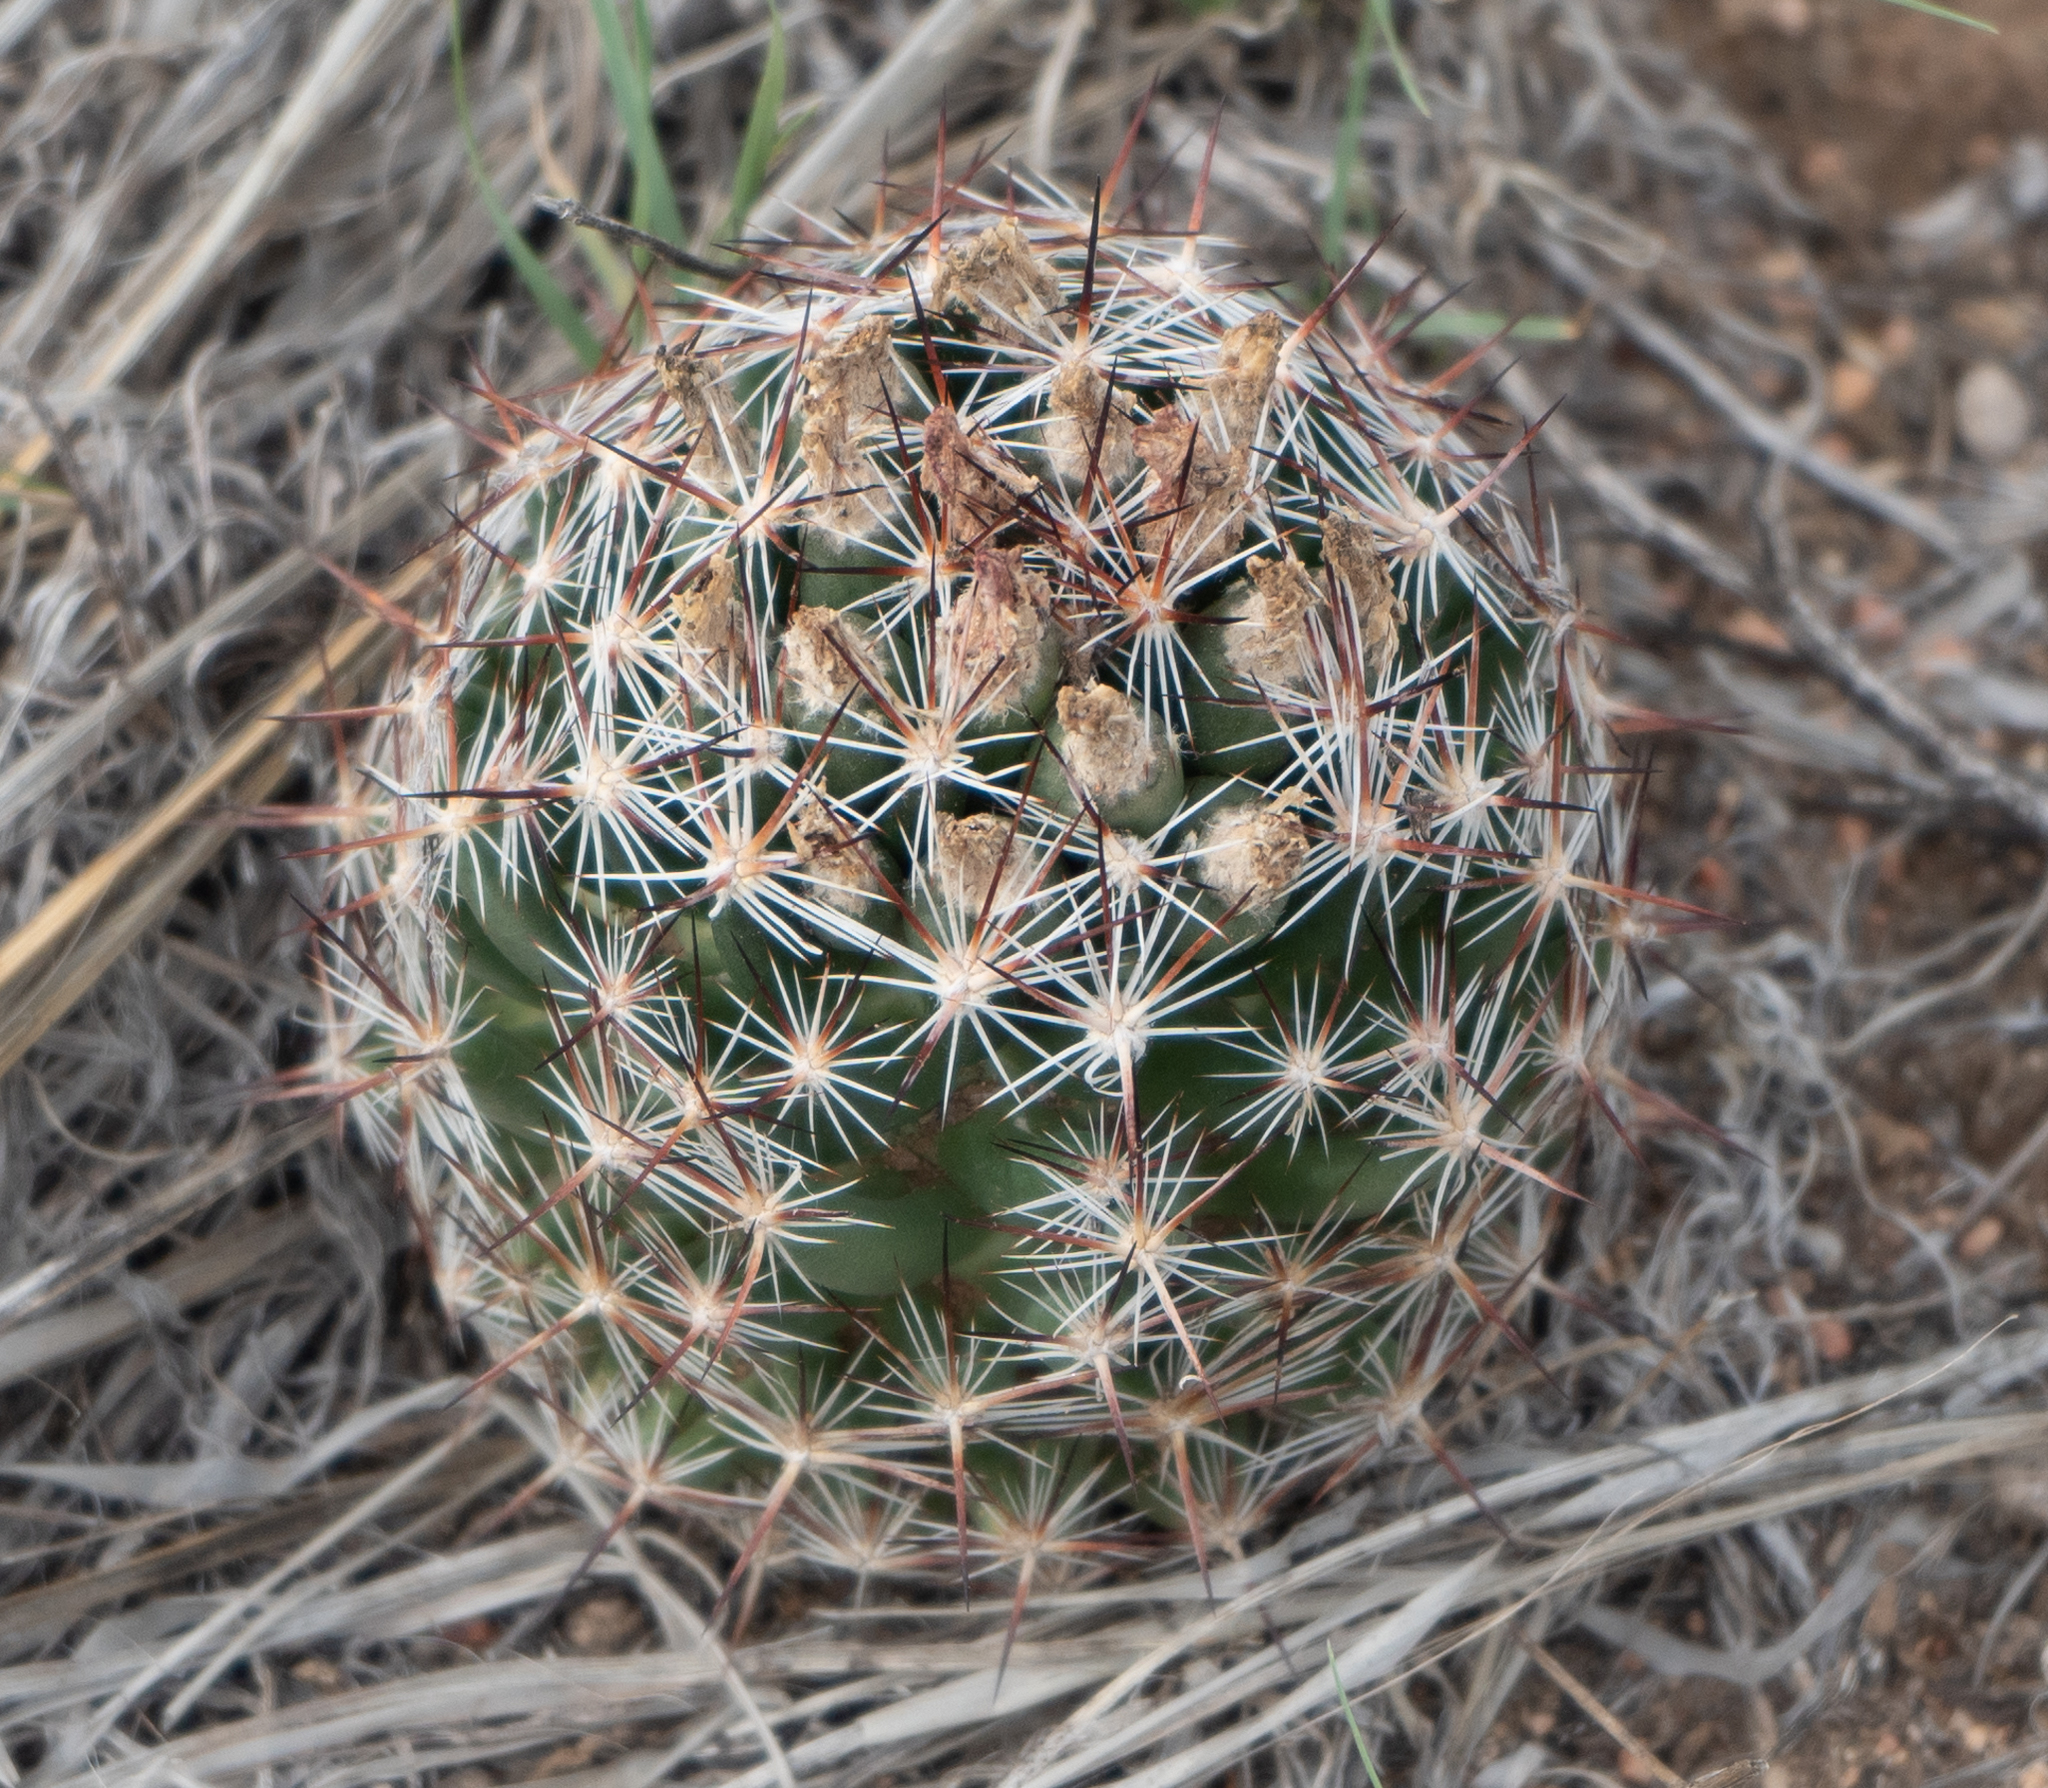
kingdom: Plantae
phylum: Tracheophyta
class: Magnoliopsida
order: Caryophyllales
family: Cactaceae
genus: Pelecyphora
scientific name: Pelecyphora vivipara
